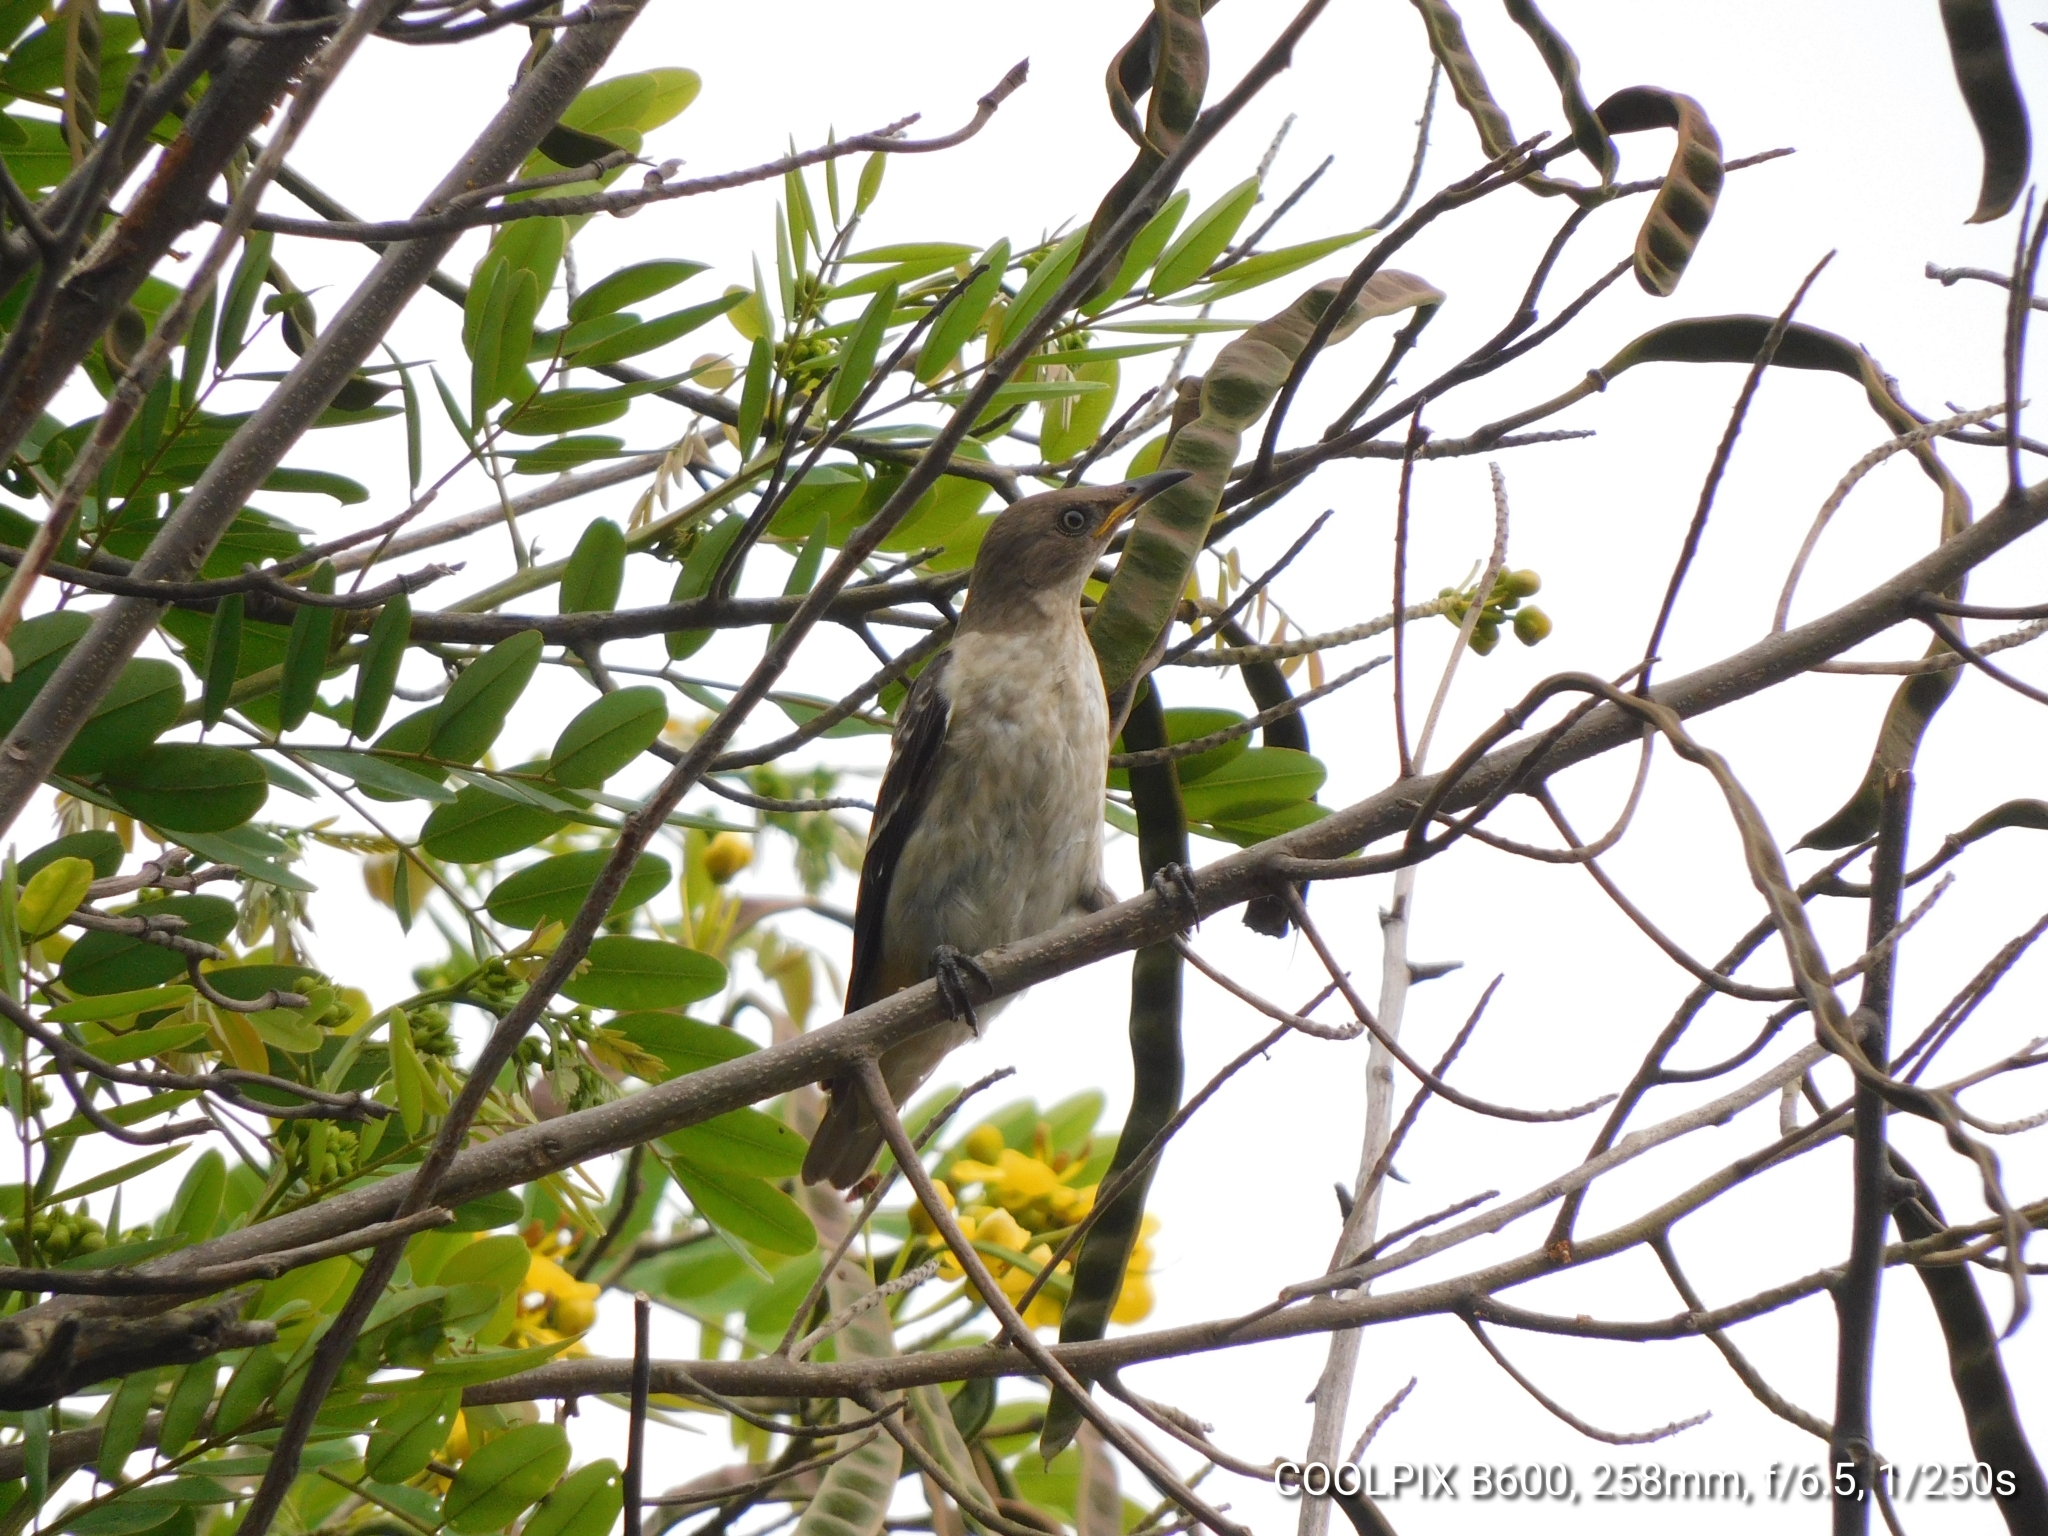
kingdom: Animalia
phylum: Chordata
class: Aves
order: Passeriformes
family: Sturnidae
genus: Saroglossa
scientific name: Saroglossa spiloptera
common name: Spot-winged starling
